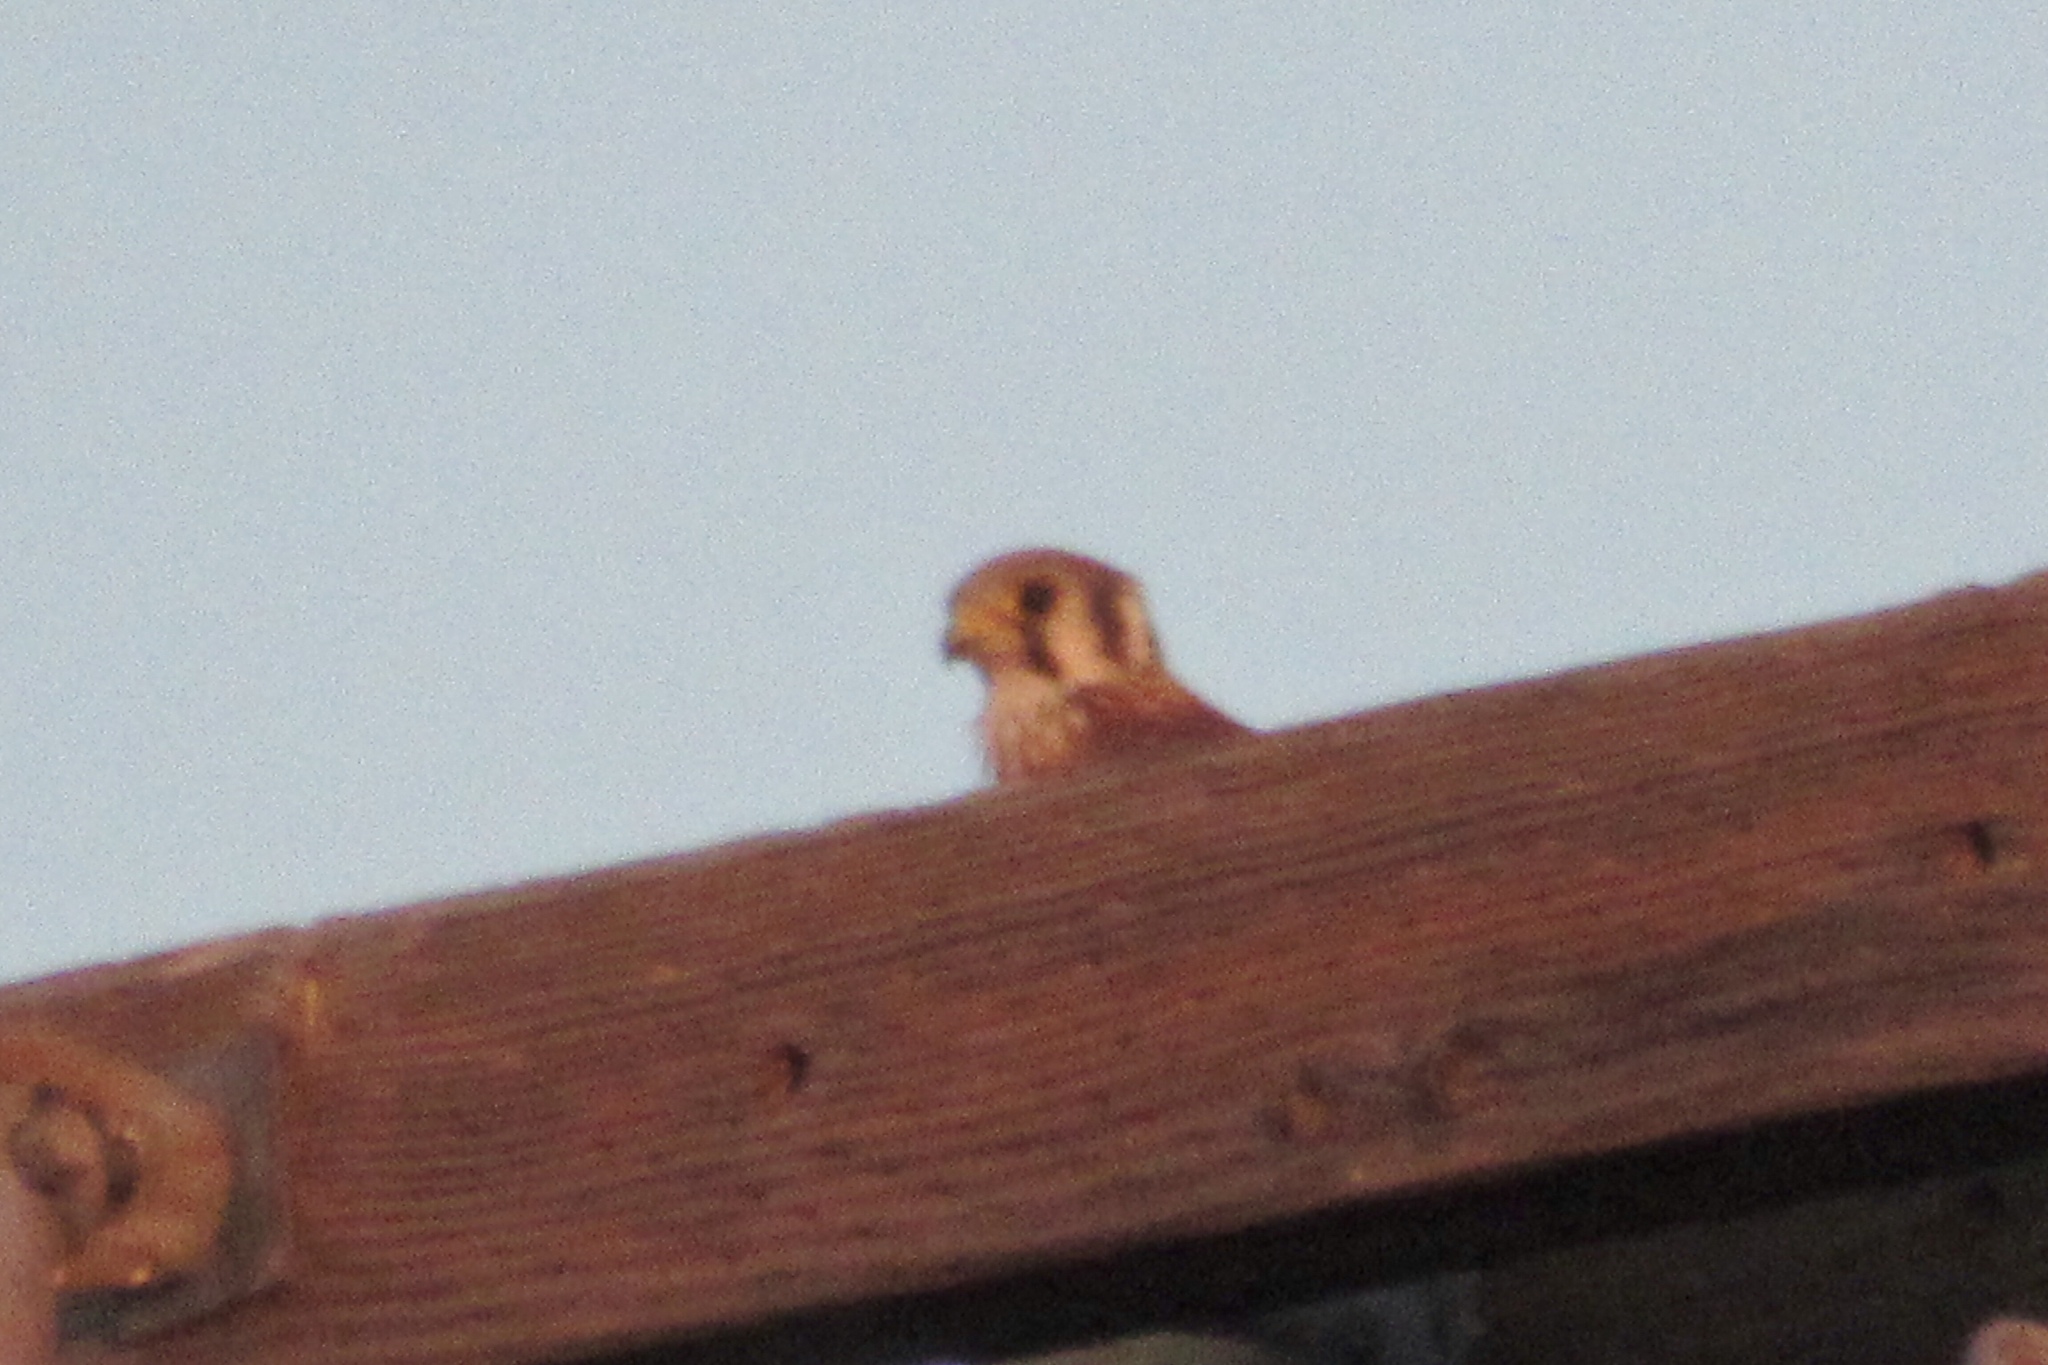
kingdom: Animalia
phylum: Chordata
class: Aves
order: Falconiformes
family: Falconidae
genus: Falco
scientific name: Falco sparverius
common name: American kestrel
